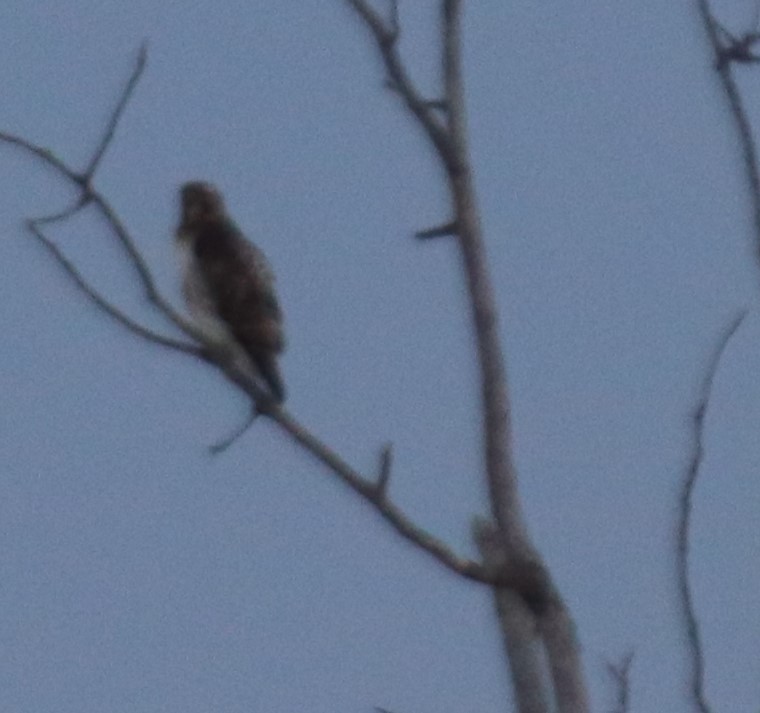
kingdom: Animalia
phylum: Chordata
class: Aves
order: Accipitriformes
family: Accipitridae
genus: Buteo
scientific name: Buteo jamaicensis
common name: Red-tailed hawk
